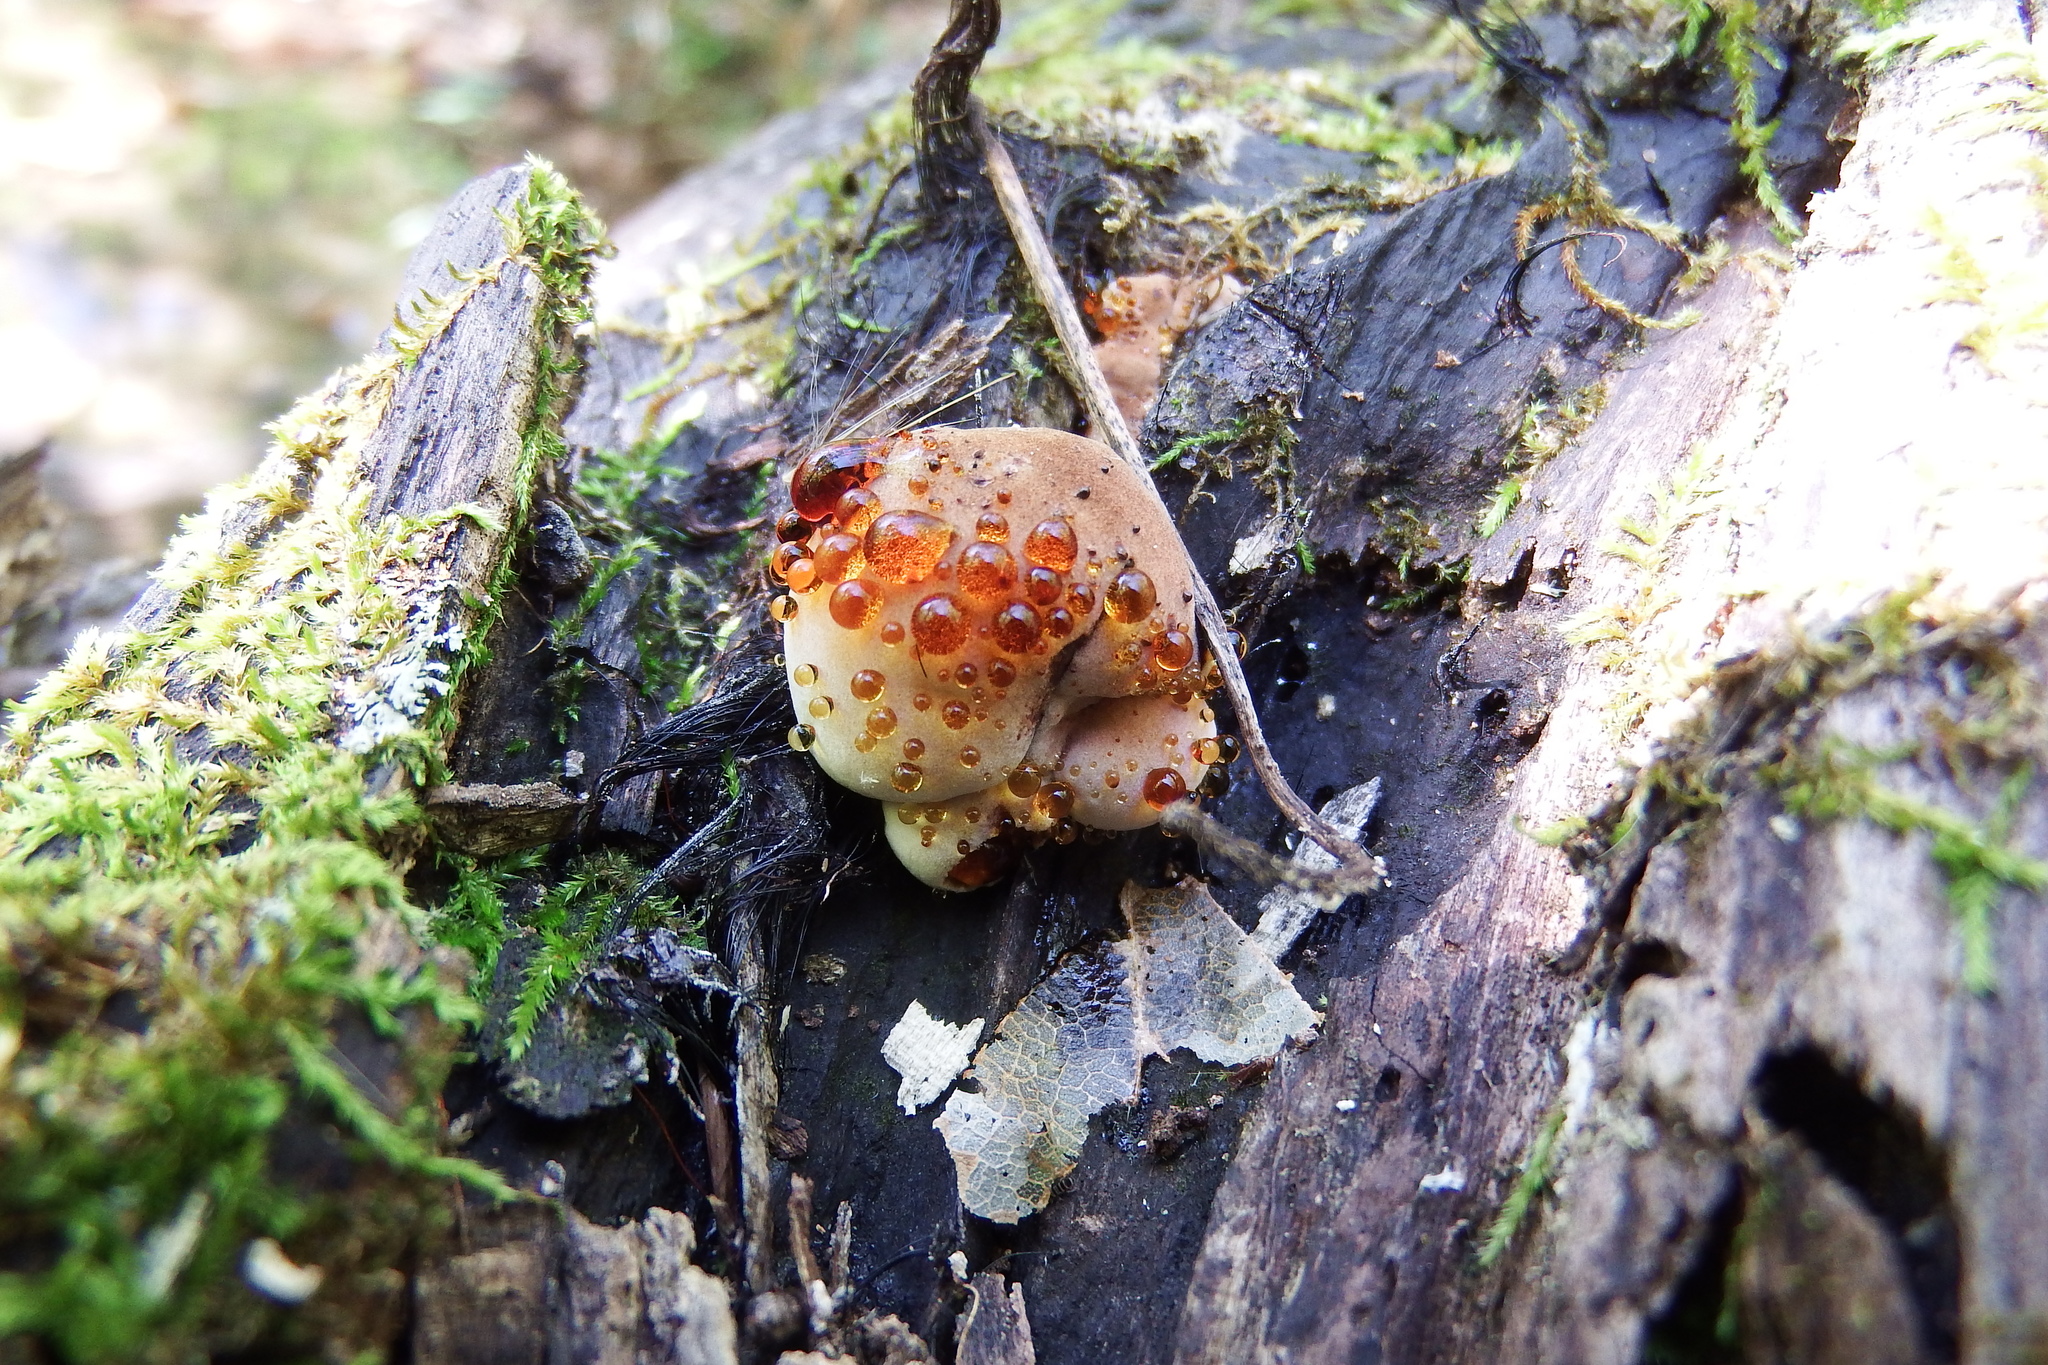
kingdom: Fungi
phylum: Basidiomycota
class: Agaricomycetes
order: Polyporales
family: Ischnodermataceae
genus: Ischnoderma
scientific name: Ischnoderma resinosum
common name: Resinous polypore
